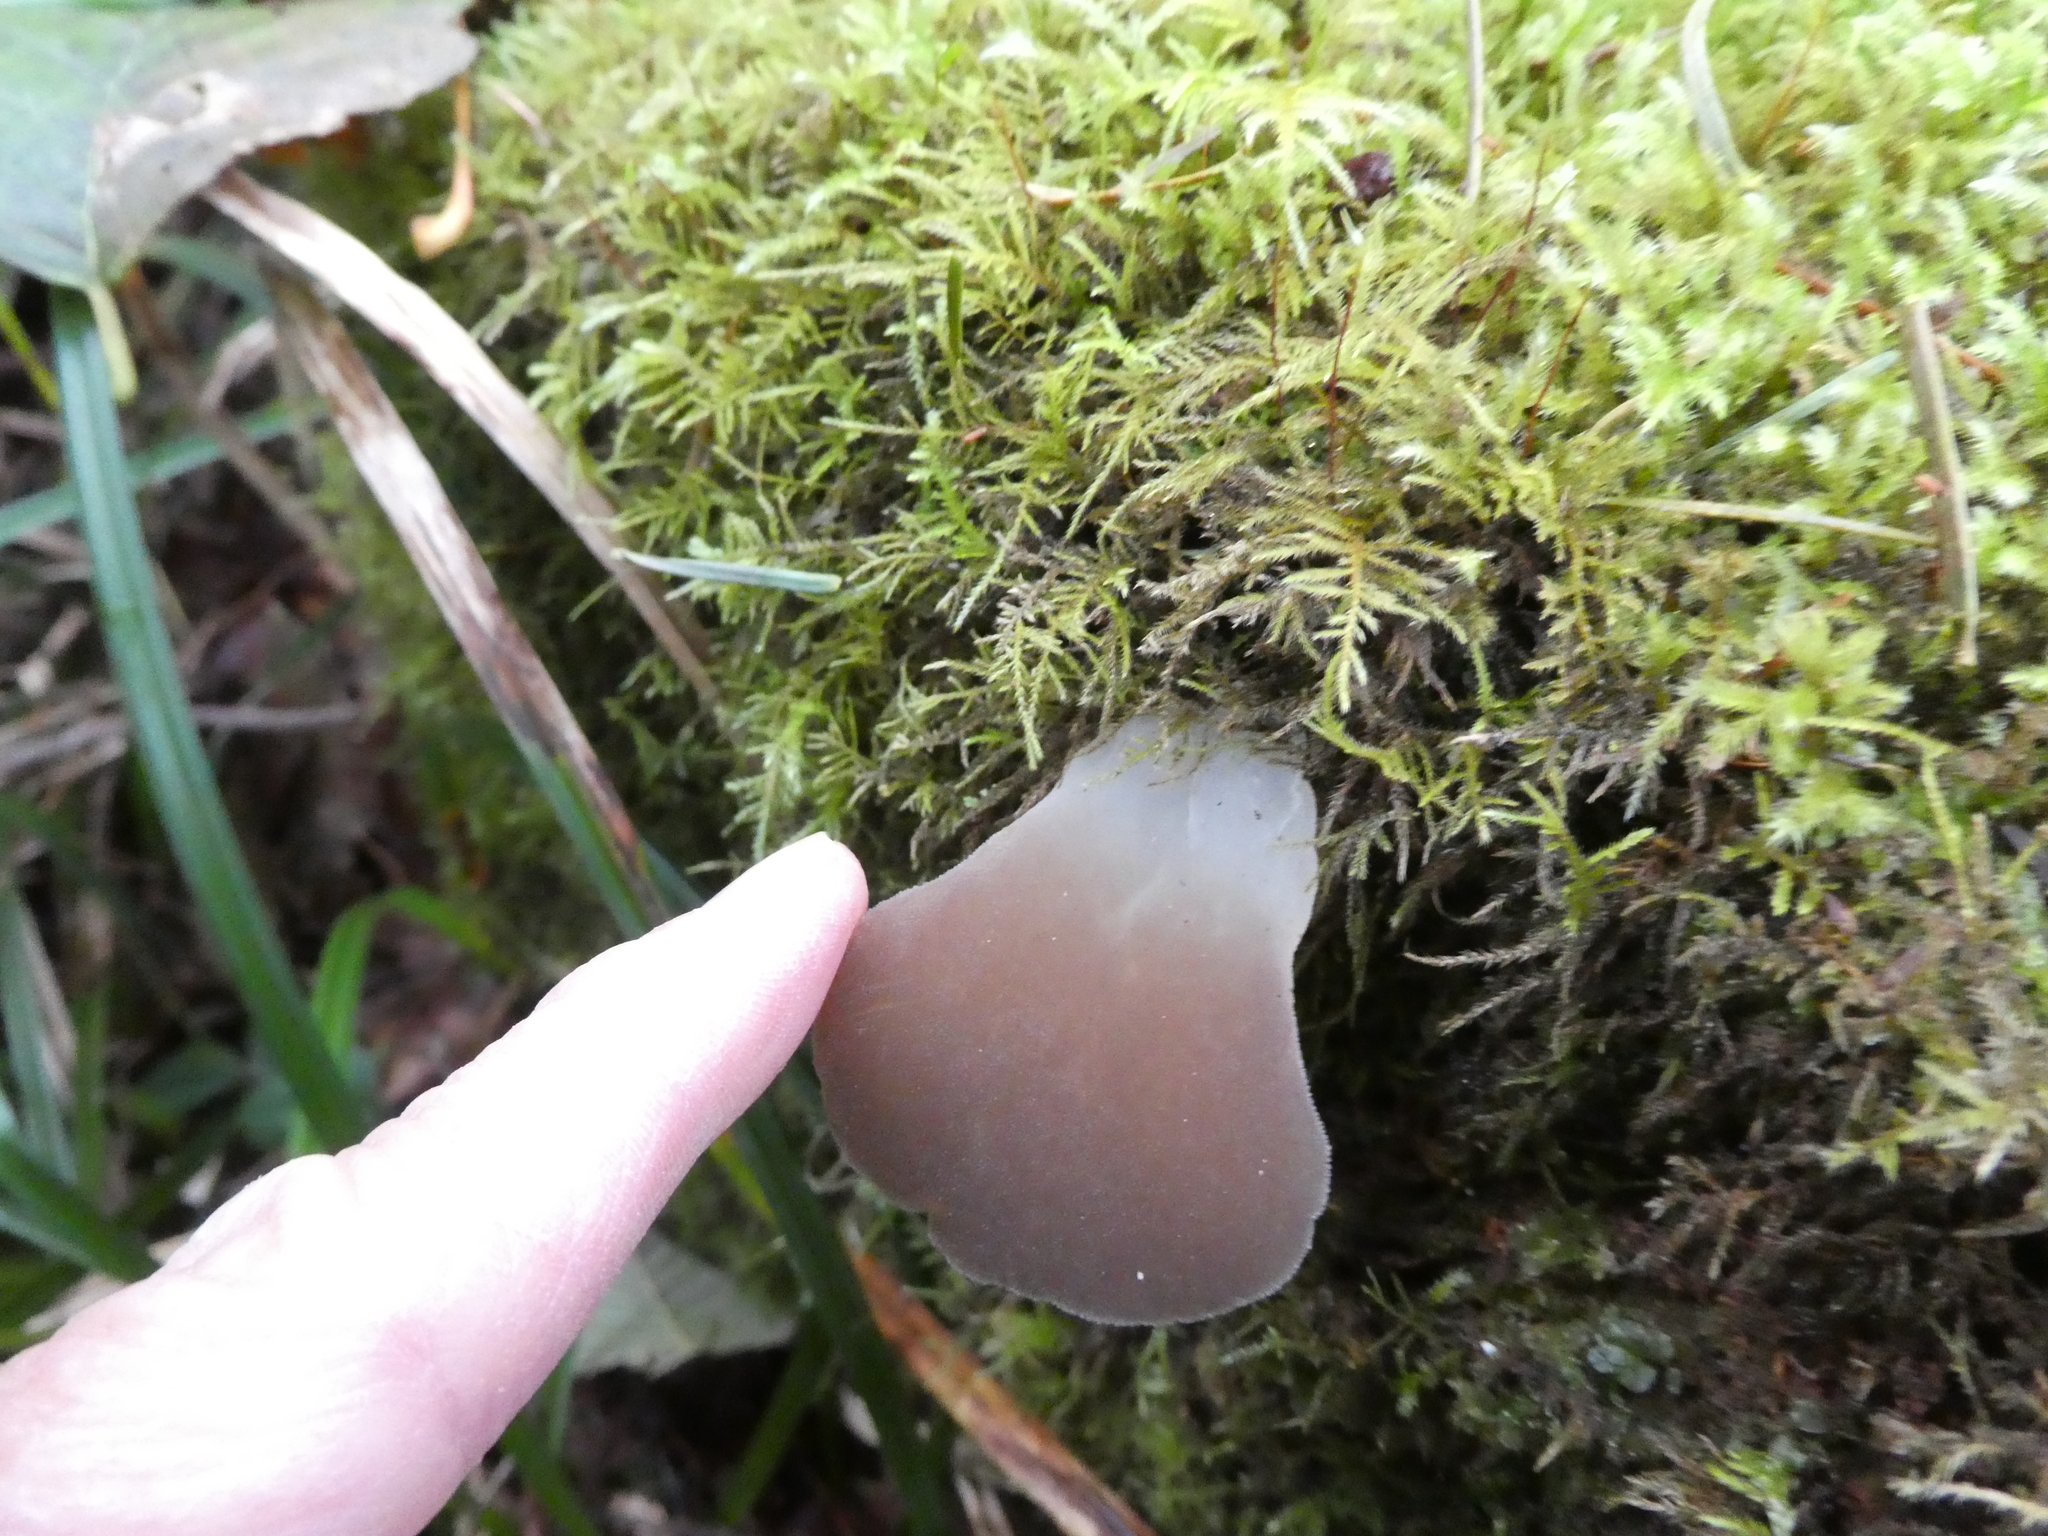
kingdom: Fungi
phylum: Basidiomycota
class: Agaricomycetes
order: Auriculariales
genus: Pseudohydnum
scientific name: Pseudohydnum gelatinosum
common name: Jelly tongue
